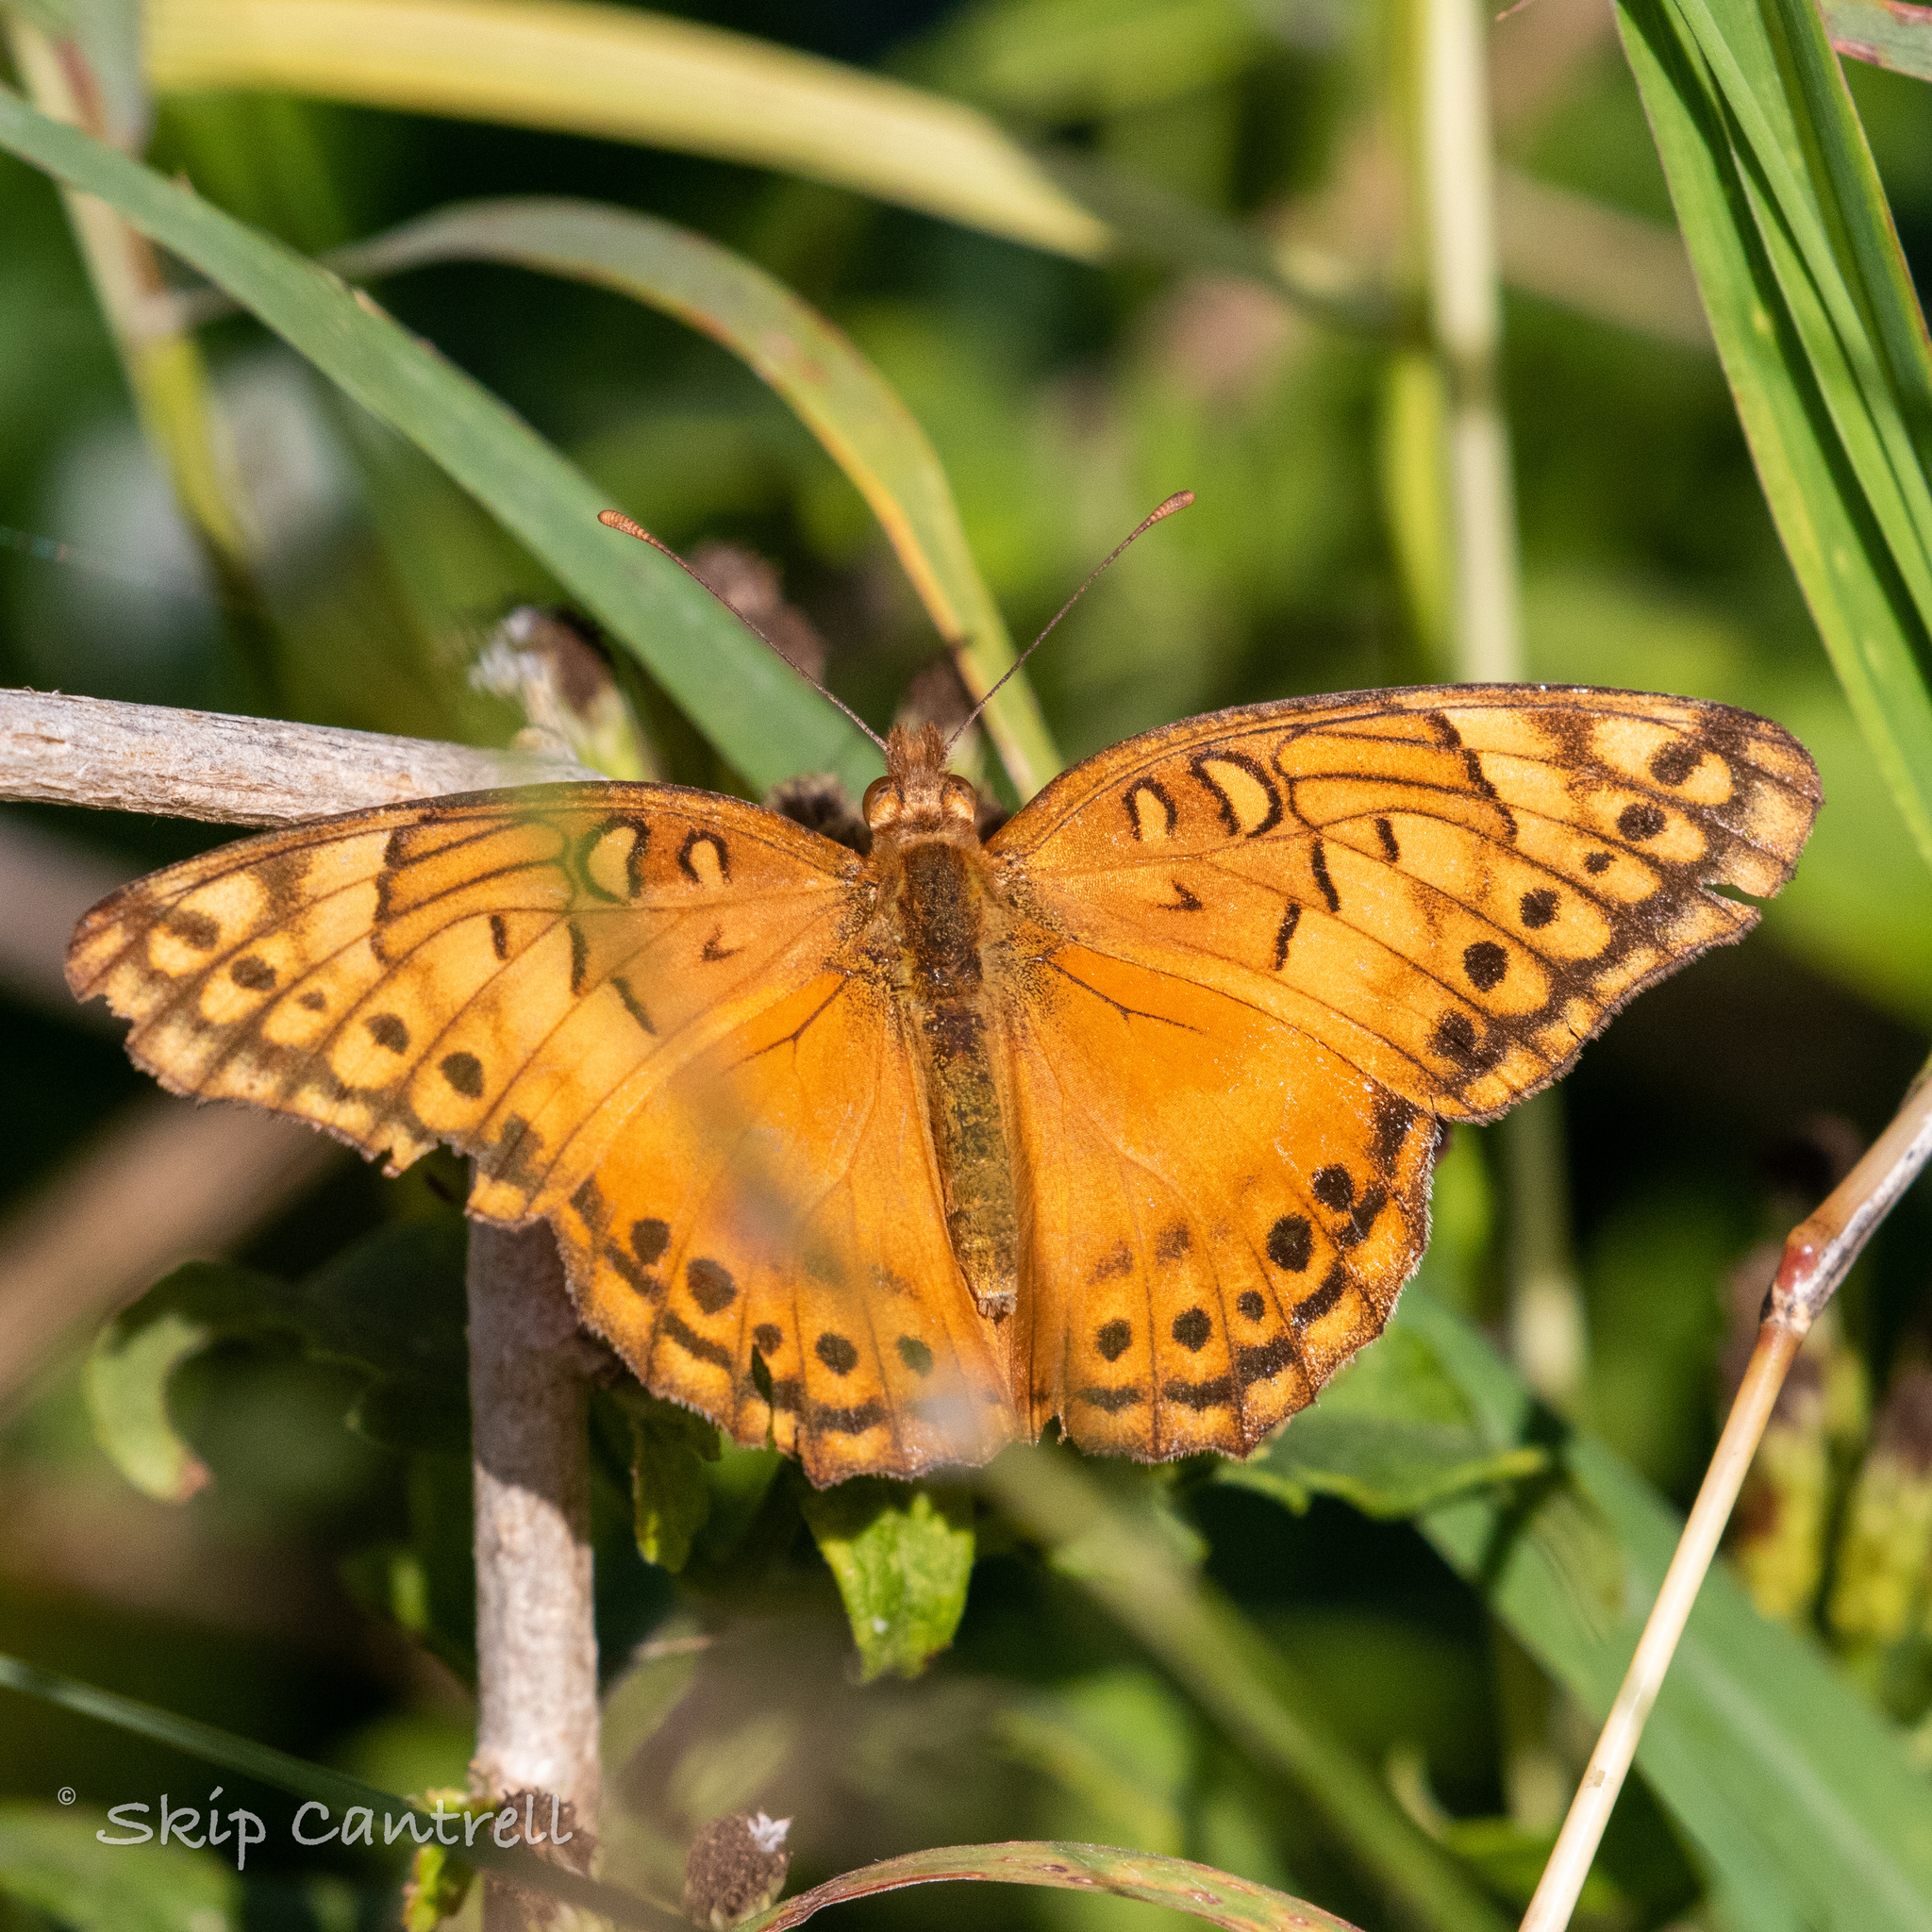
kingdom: Animalia
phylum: Arthropoda
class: Insecta
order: Lepidoptera
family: Nymphalidae
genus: Euptoieta
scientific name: Euptoieta hegesia
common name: Mexican fritillary
